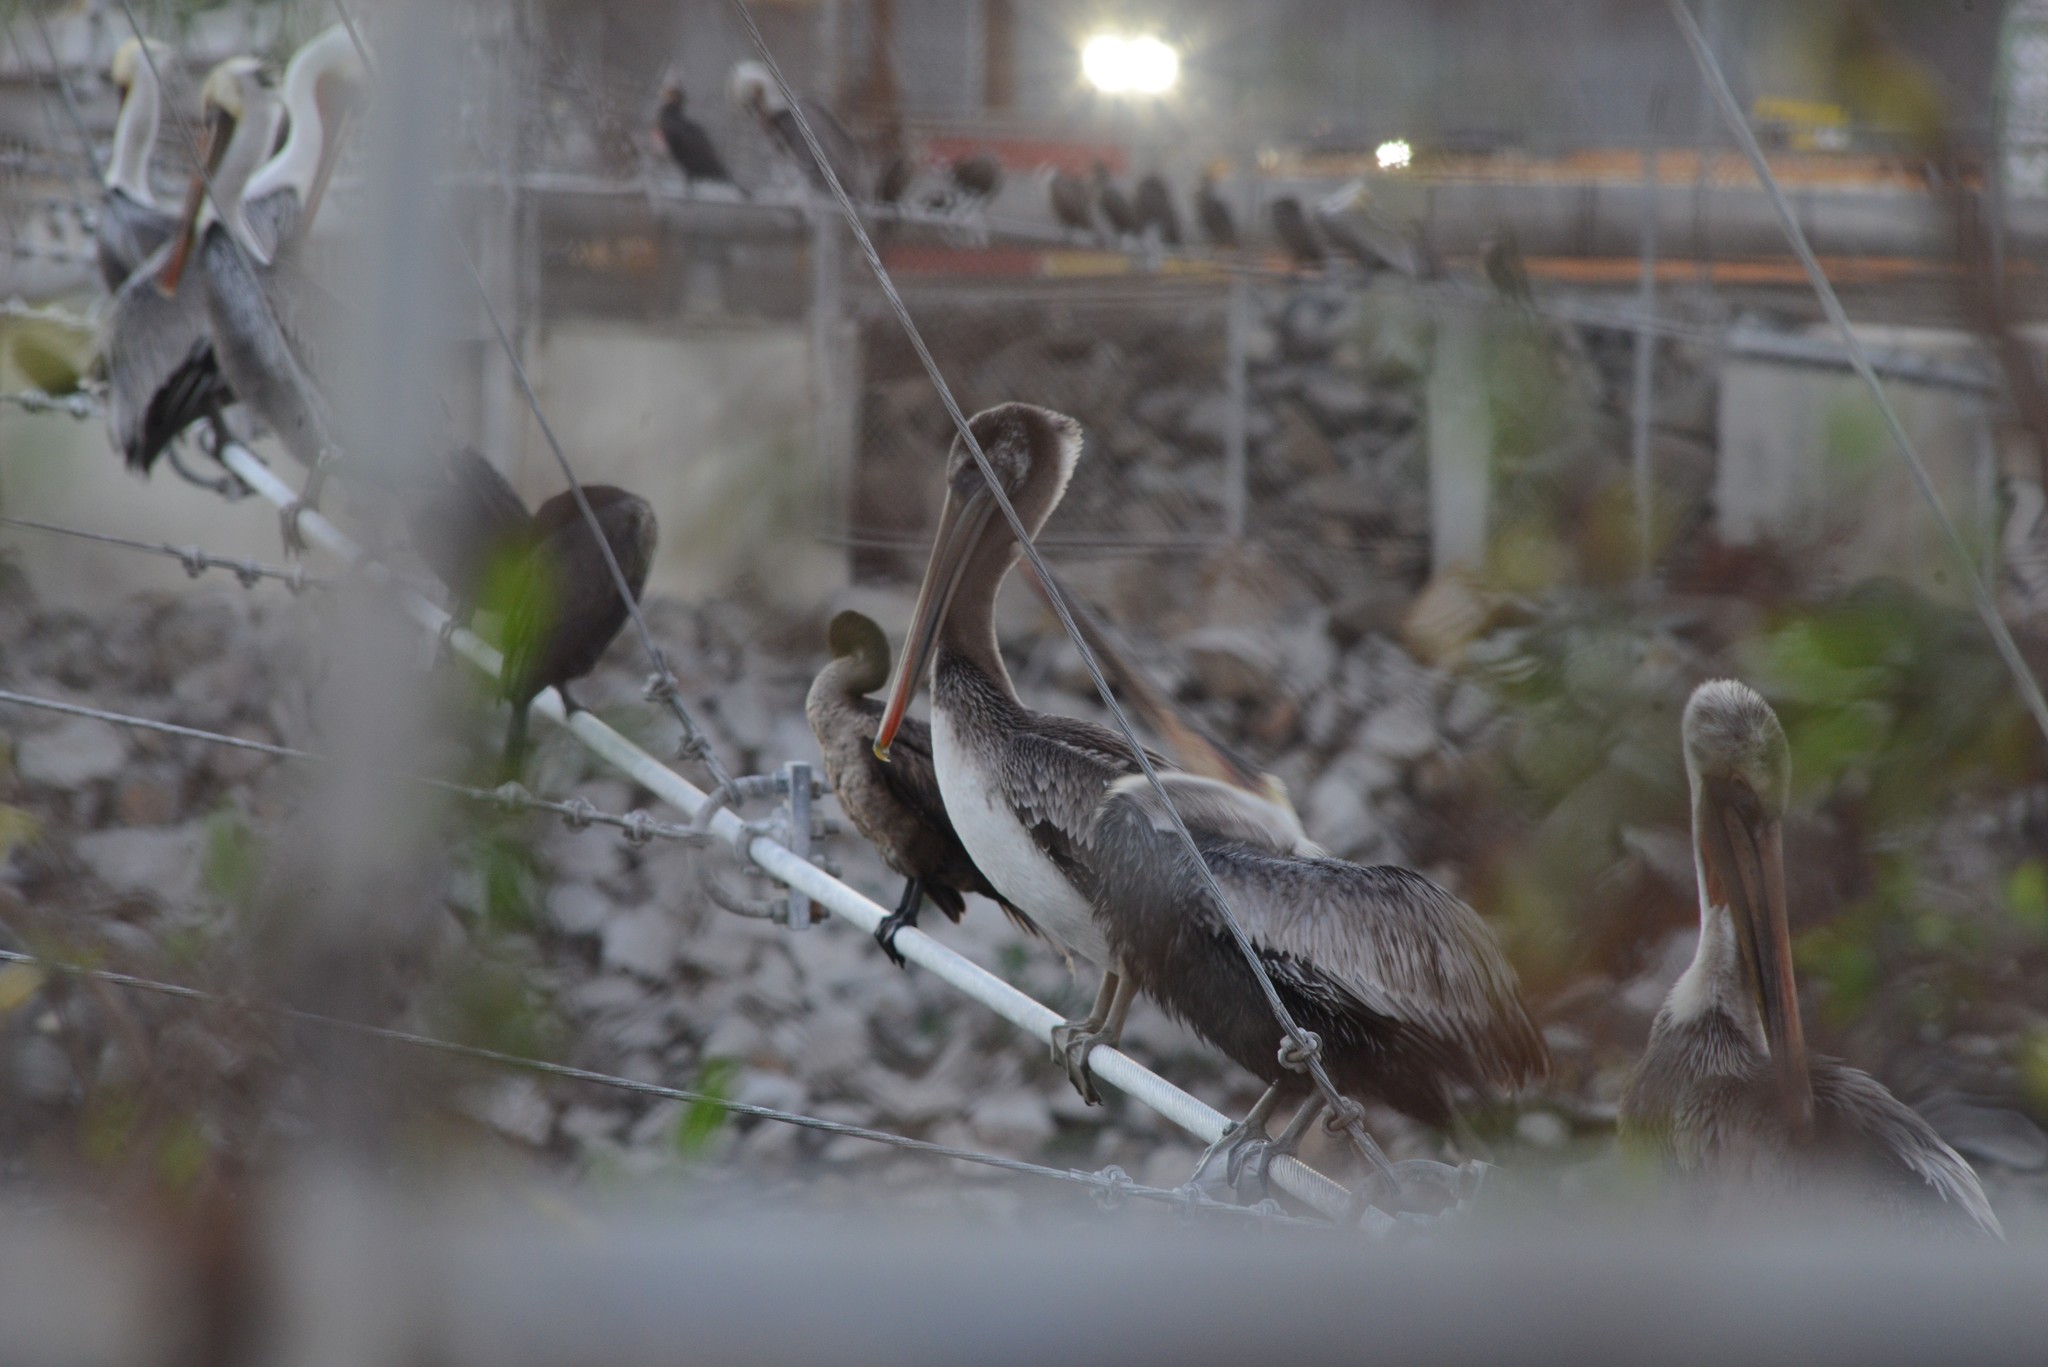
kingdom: Animalia
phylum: Chordata
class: Aves
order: Pelecaniformes
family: Pelecanidae
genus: Pelecanus
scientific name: Pelecanus occidentalis
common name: Brown pelican
